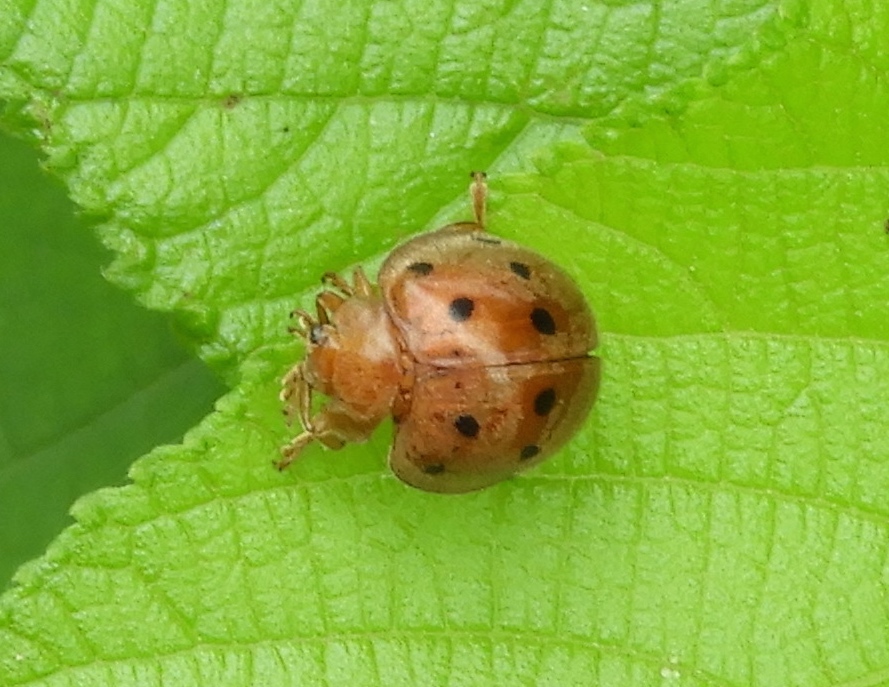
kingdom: Animalia
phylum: Arthropoda
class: Insecta
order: Coleoptera
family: Coccinellidae
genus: Epilachna
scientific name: Epilachna
